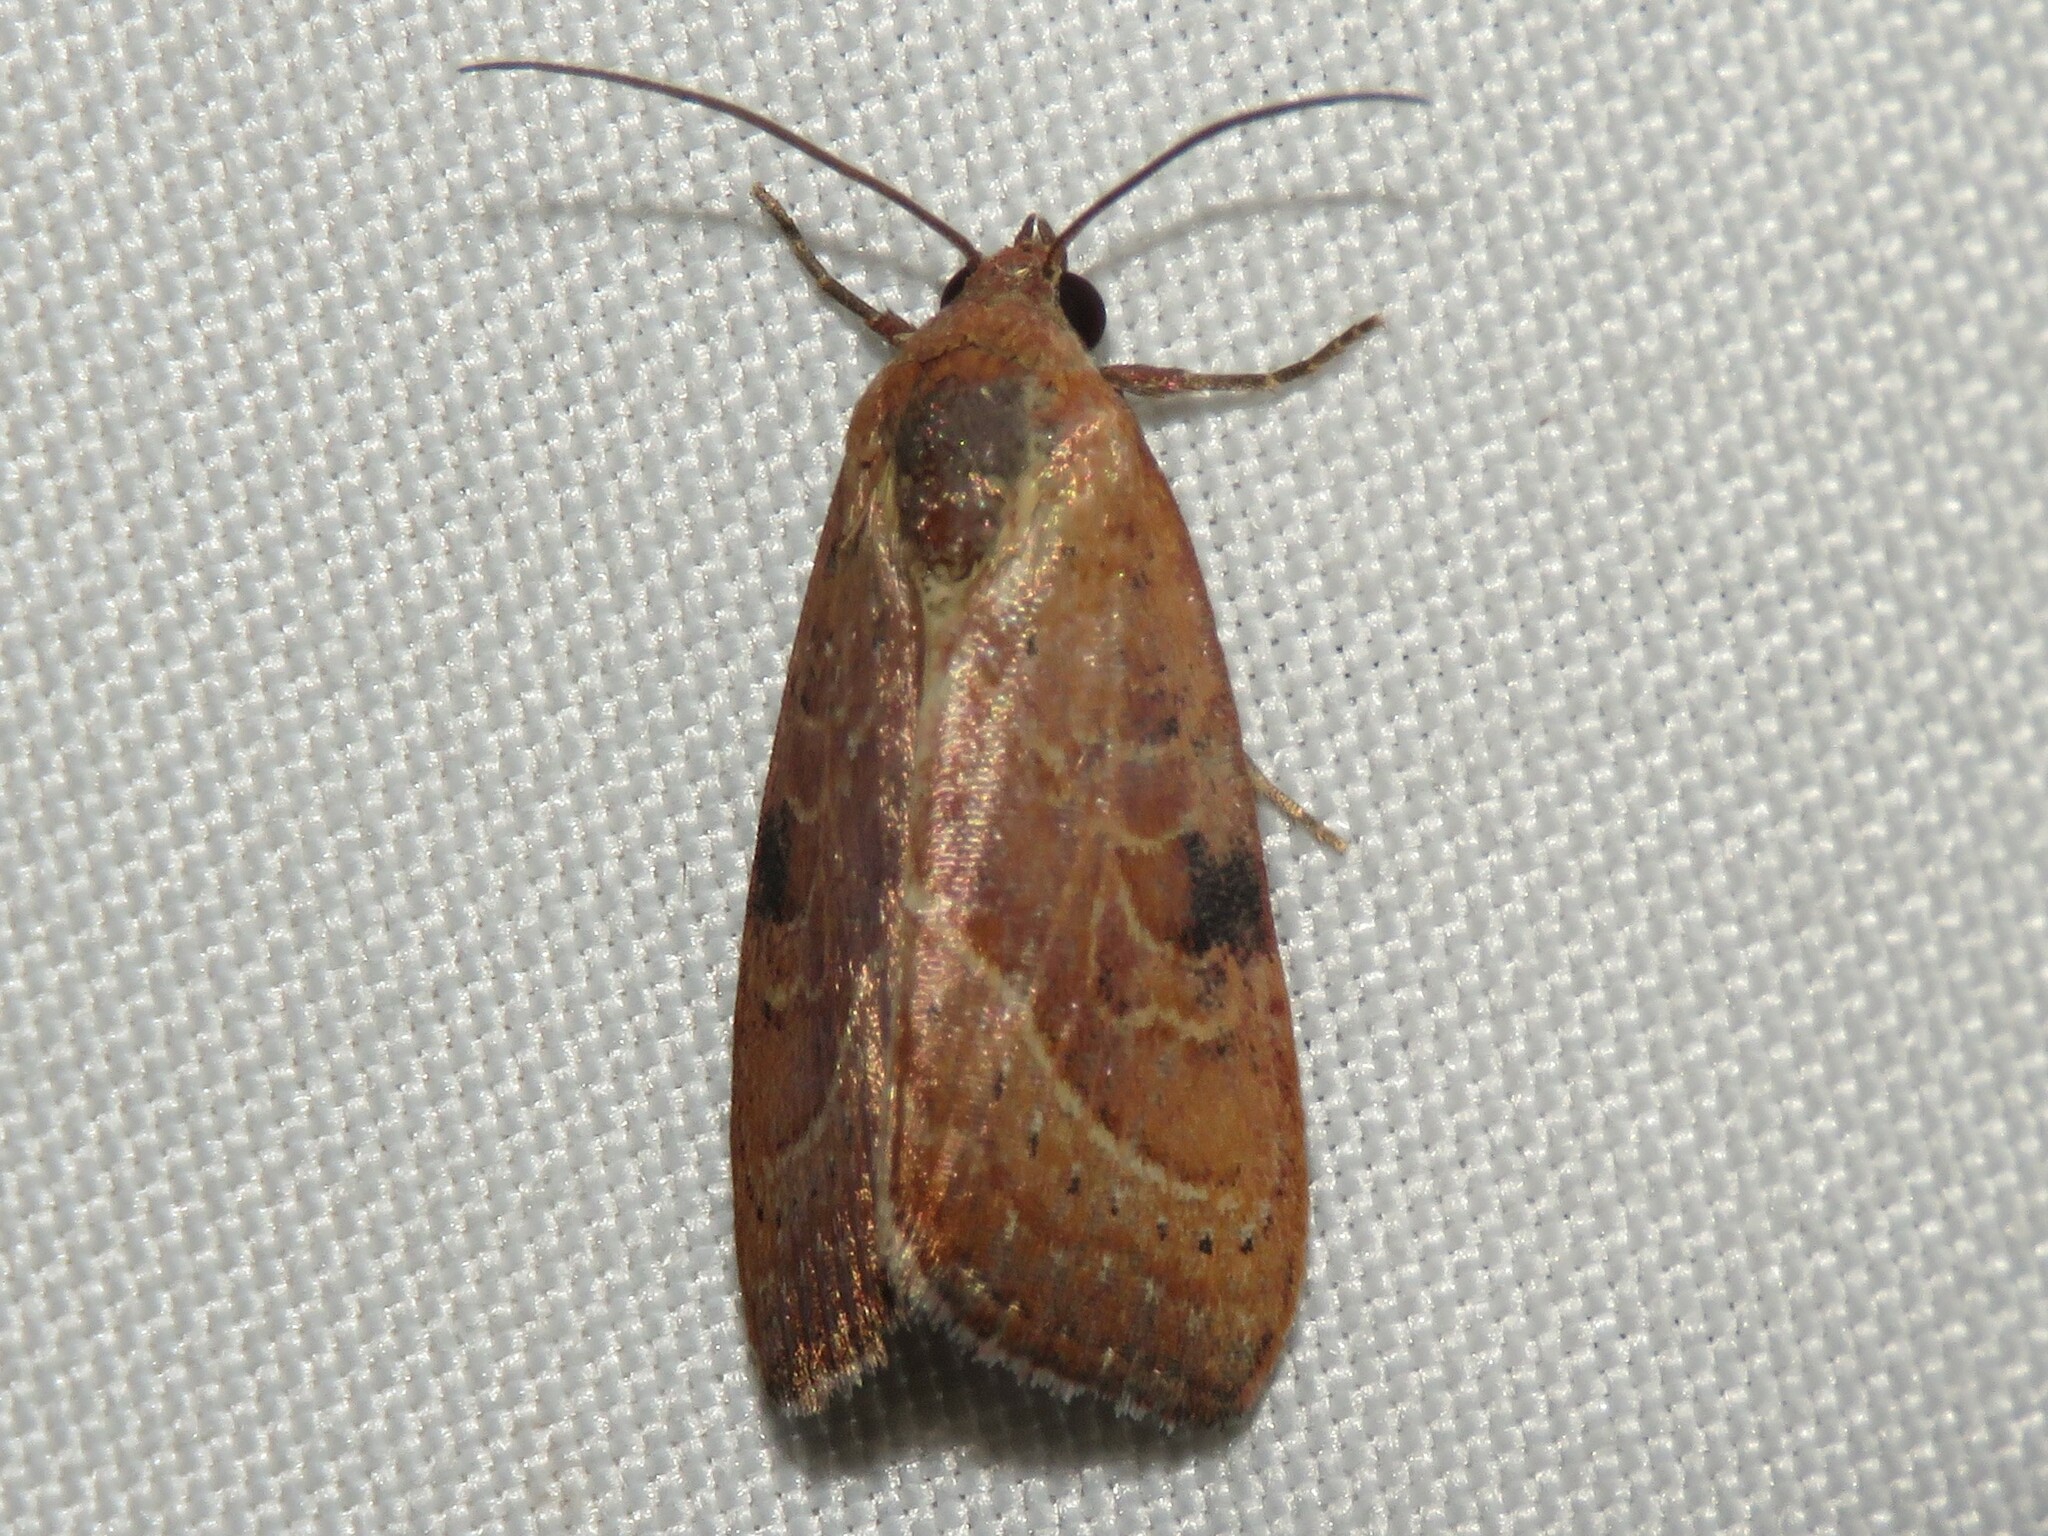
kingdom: Animalia
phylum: Arthropoda
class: Insecta
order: Lepidoptera
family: Noctuidae
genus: Galgula
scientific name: Galgula partita
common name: Wedgeling
